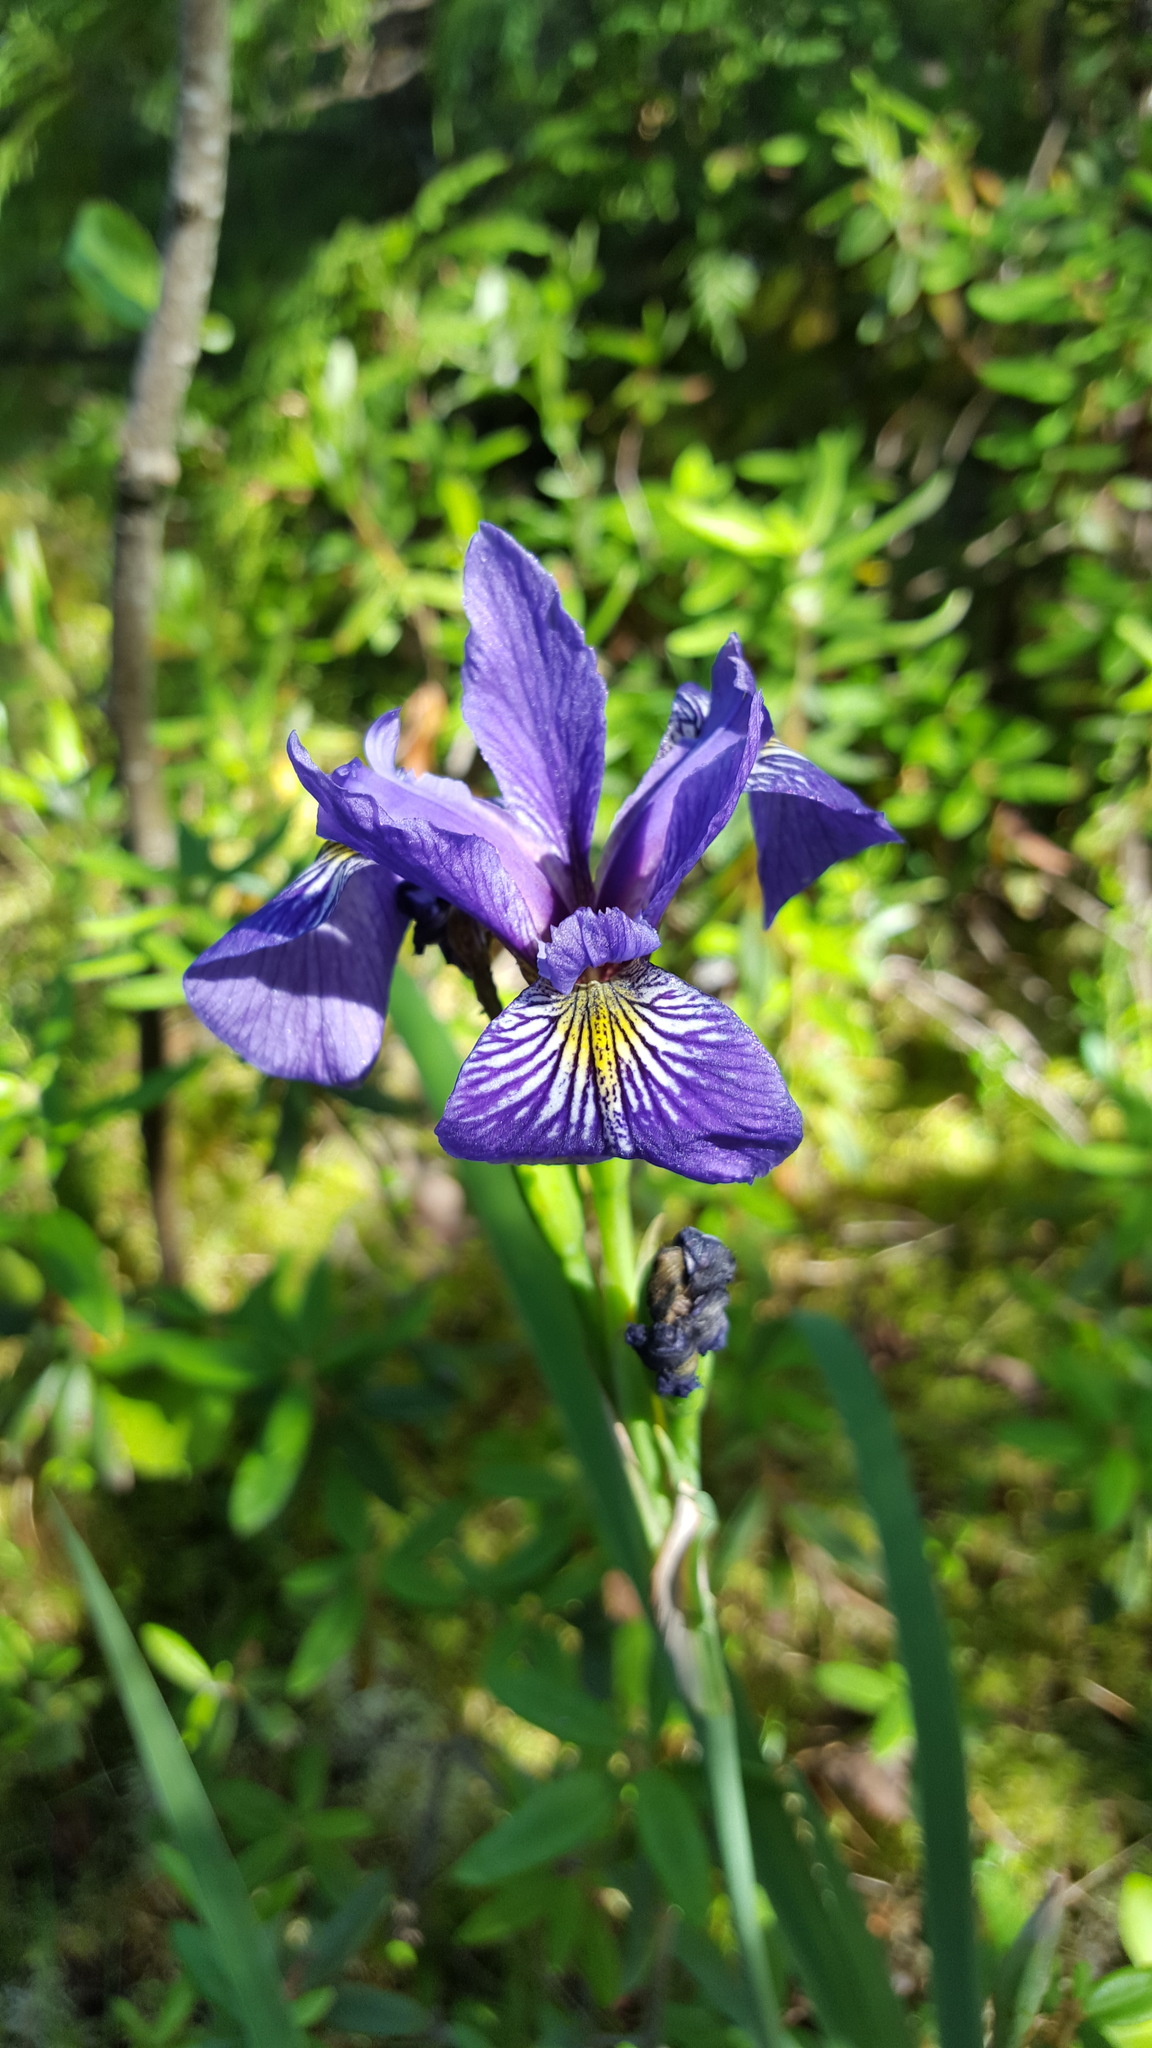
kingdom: Plantae
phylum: Tracheophyta
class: Liliopsida
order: Asparagales
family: Iridaceae
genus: Iris
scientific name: Iris versicolor
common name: Purple iris
